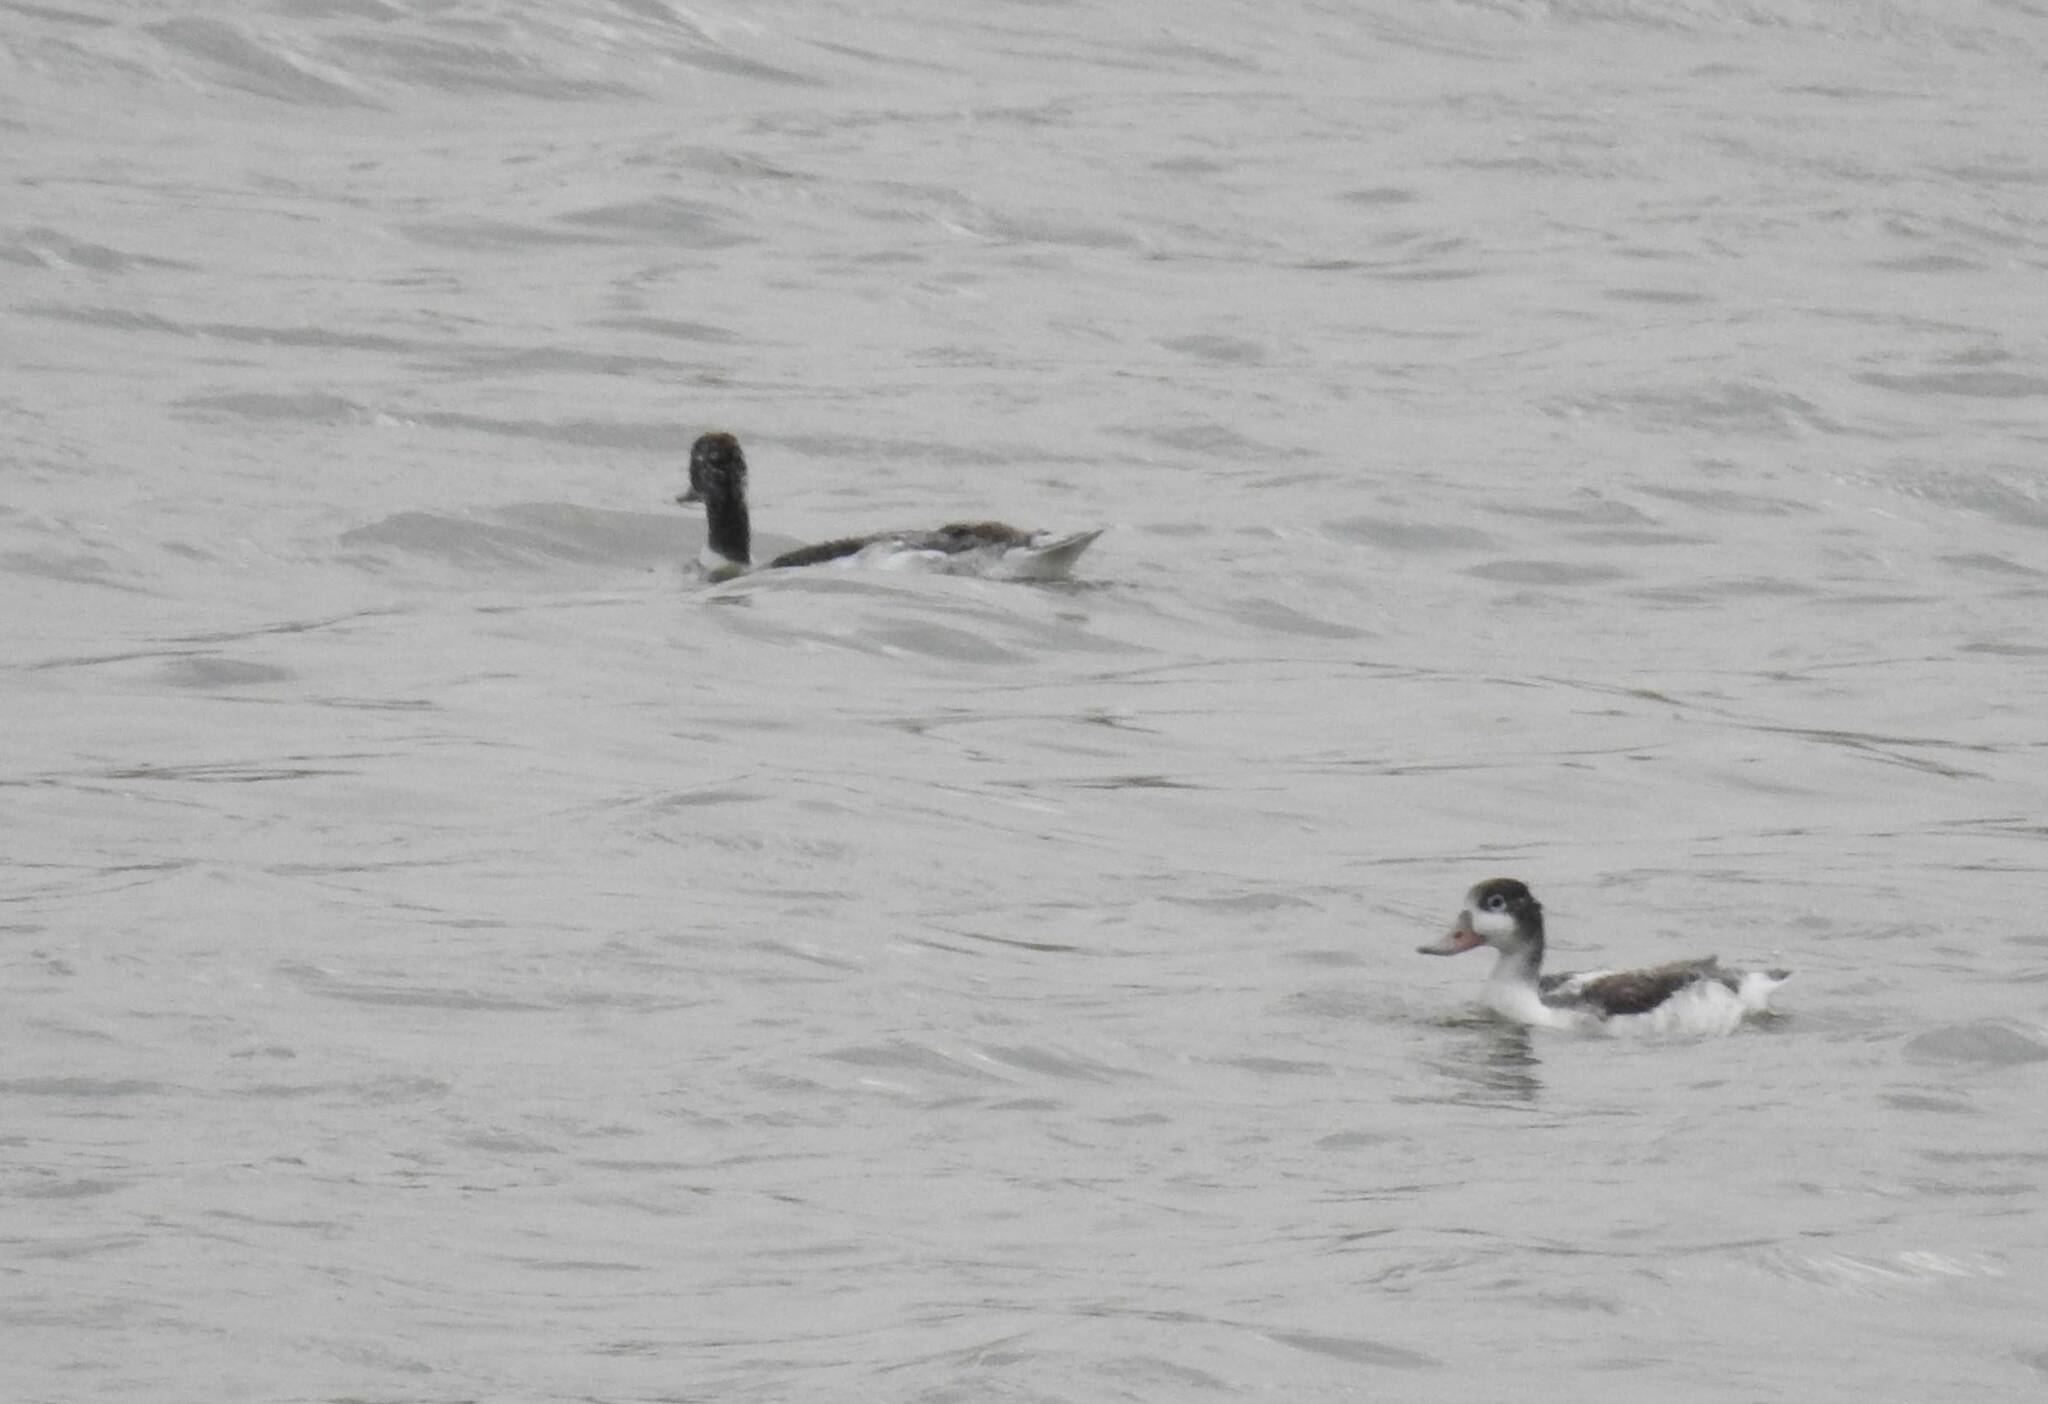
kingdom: Animalia
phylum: Chordata
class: Aves
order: Anseriformes
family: Anatidae
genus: Tadorna
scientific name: Tadorna tadorna
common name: Common shelduck
